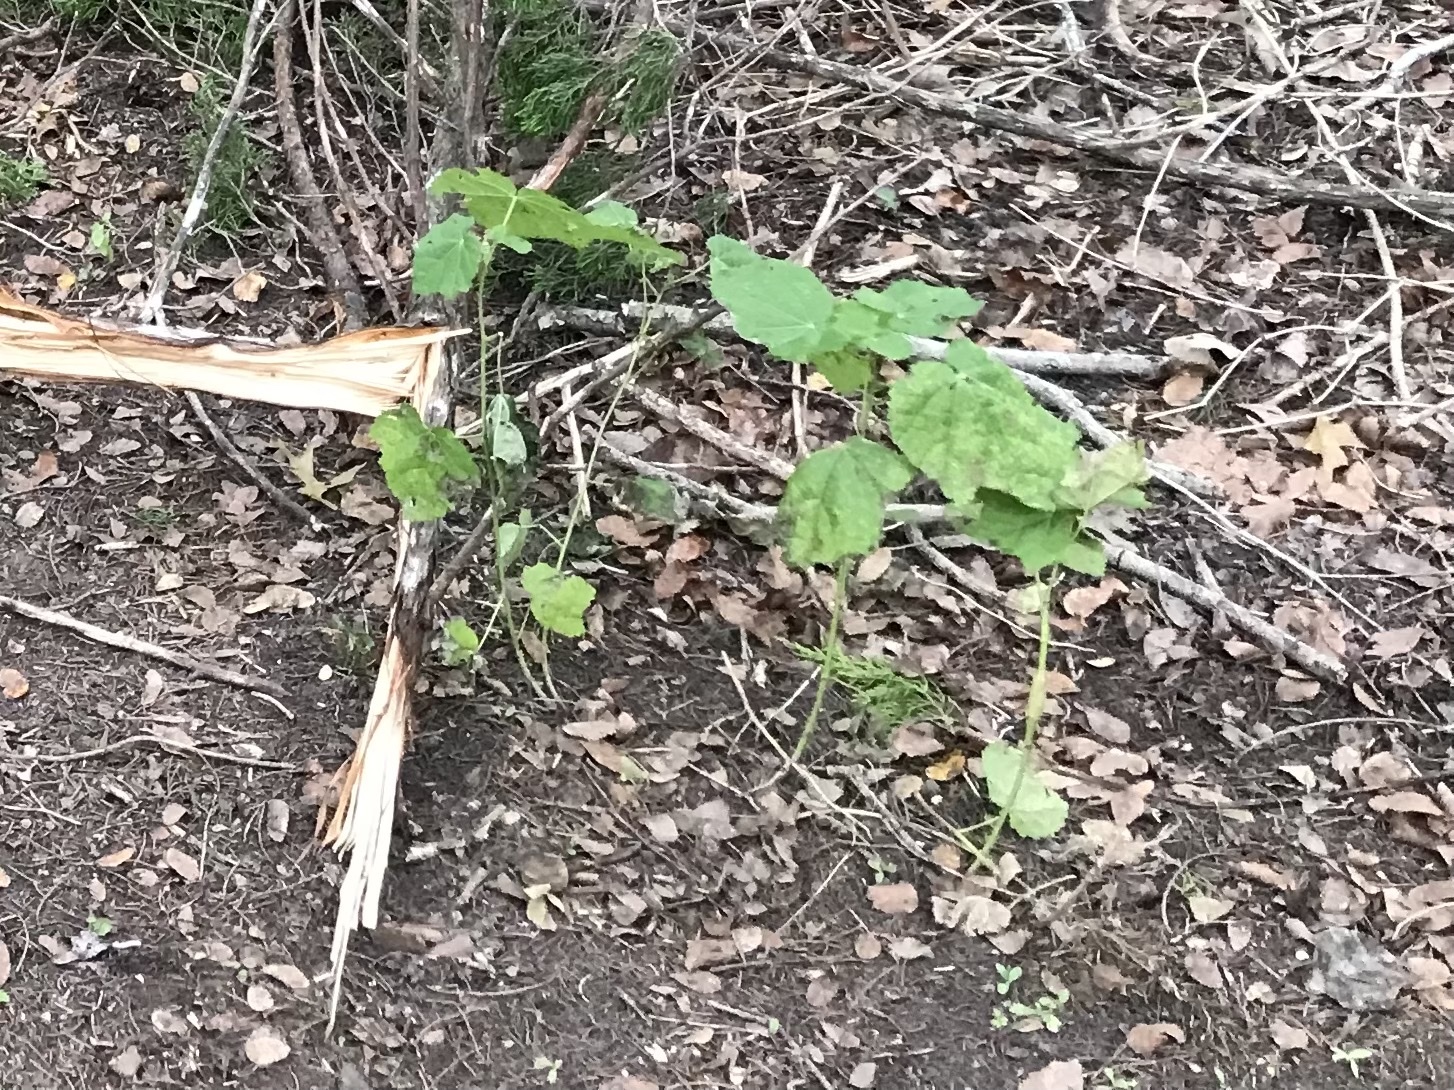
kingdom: Plantae
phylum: Tracheophyta
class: Magnoliopsida
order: Malvales
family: Malvaceae
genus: Malvaviscus
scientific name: Malvaviscus arboreus
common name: Wax mallow
